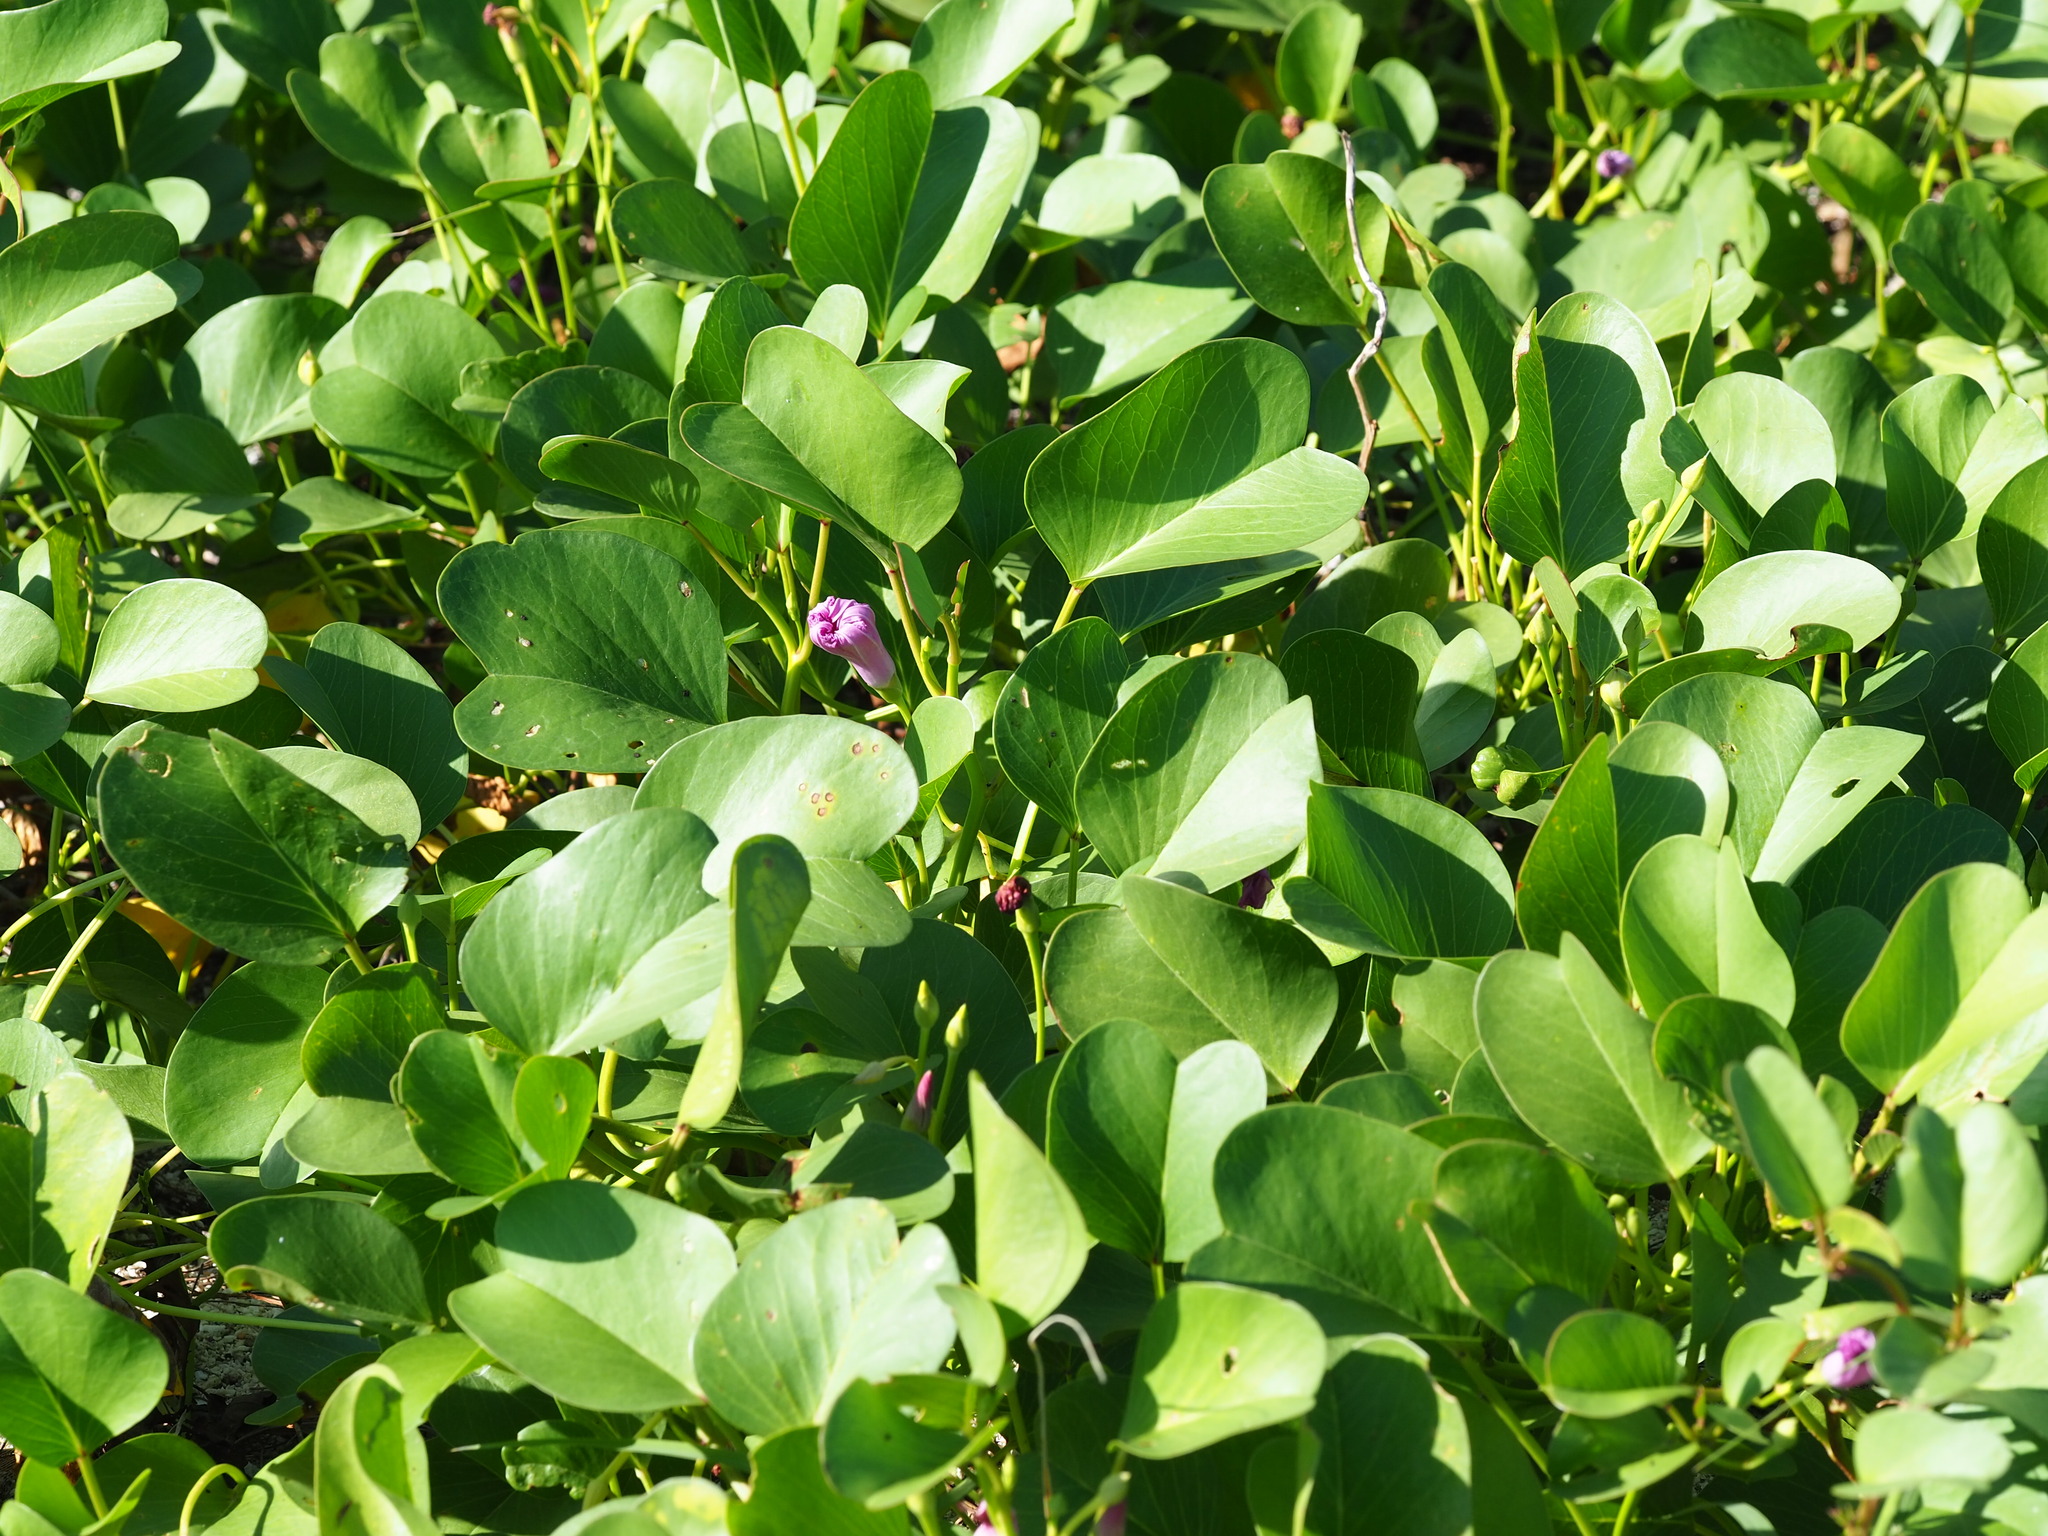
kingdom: Plantae
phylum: Tracheophyta
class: Magnoliopsida
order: Solanales
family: Convolvulaceae
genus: Ipomoea
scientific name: Ipomoea pes-caprae
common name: Beach morning glory
